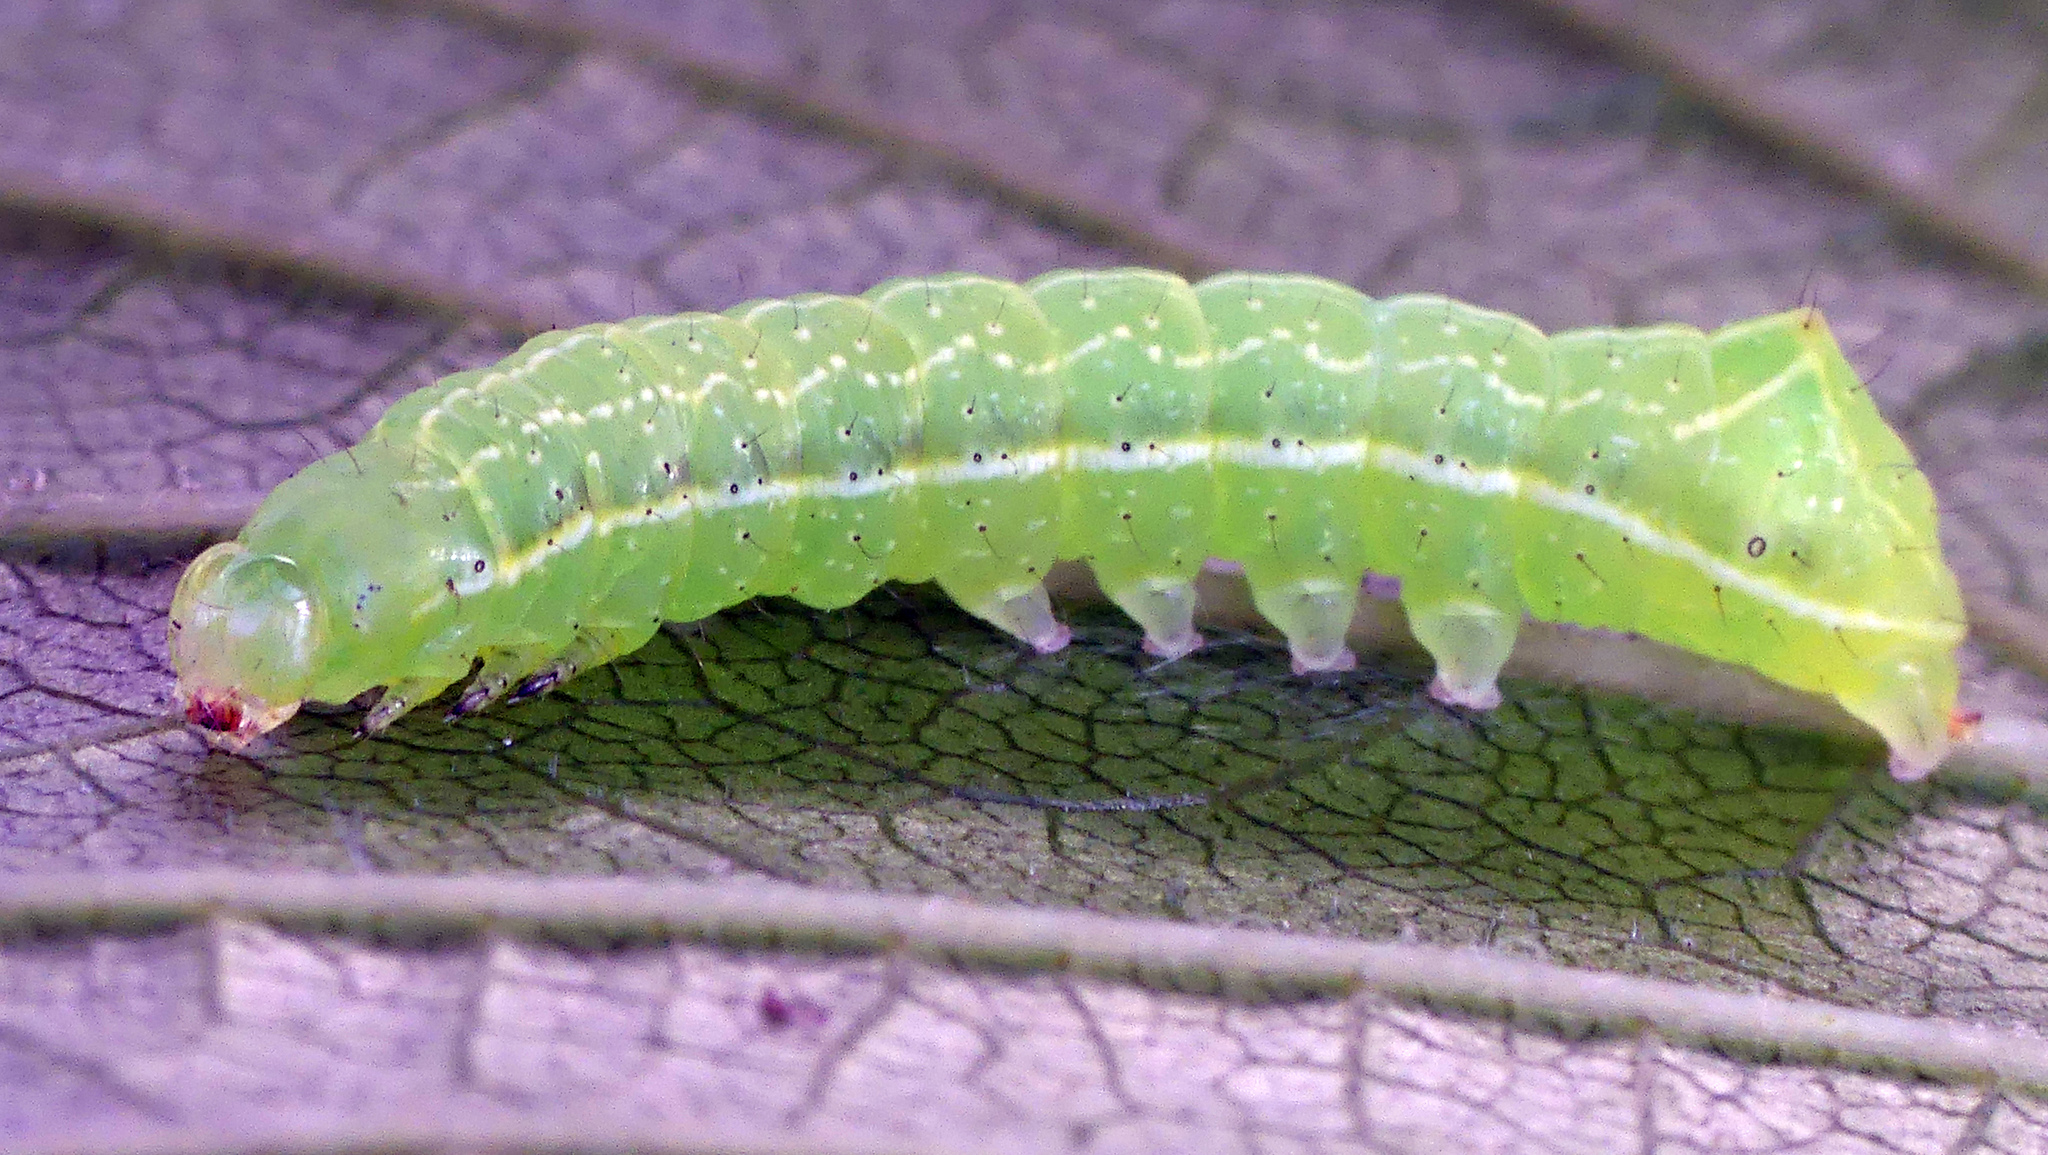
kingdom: Animalia
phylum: Arthropoda
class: Insecta
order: Lepidoptera
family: Noctuidae
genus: Amphipyra
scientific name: Amphipyra pyramidea
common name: Copper underwing
